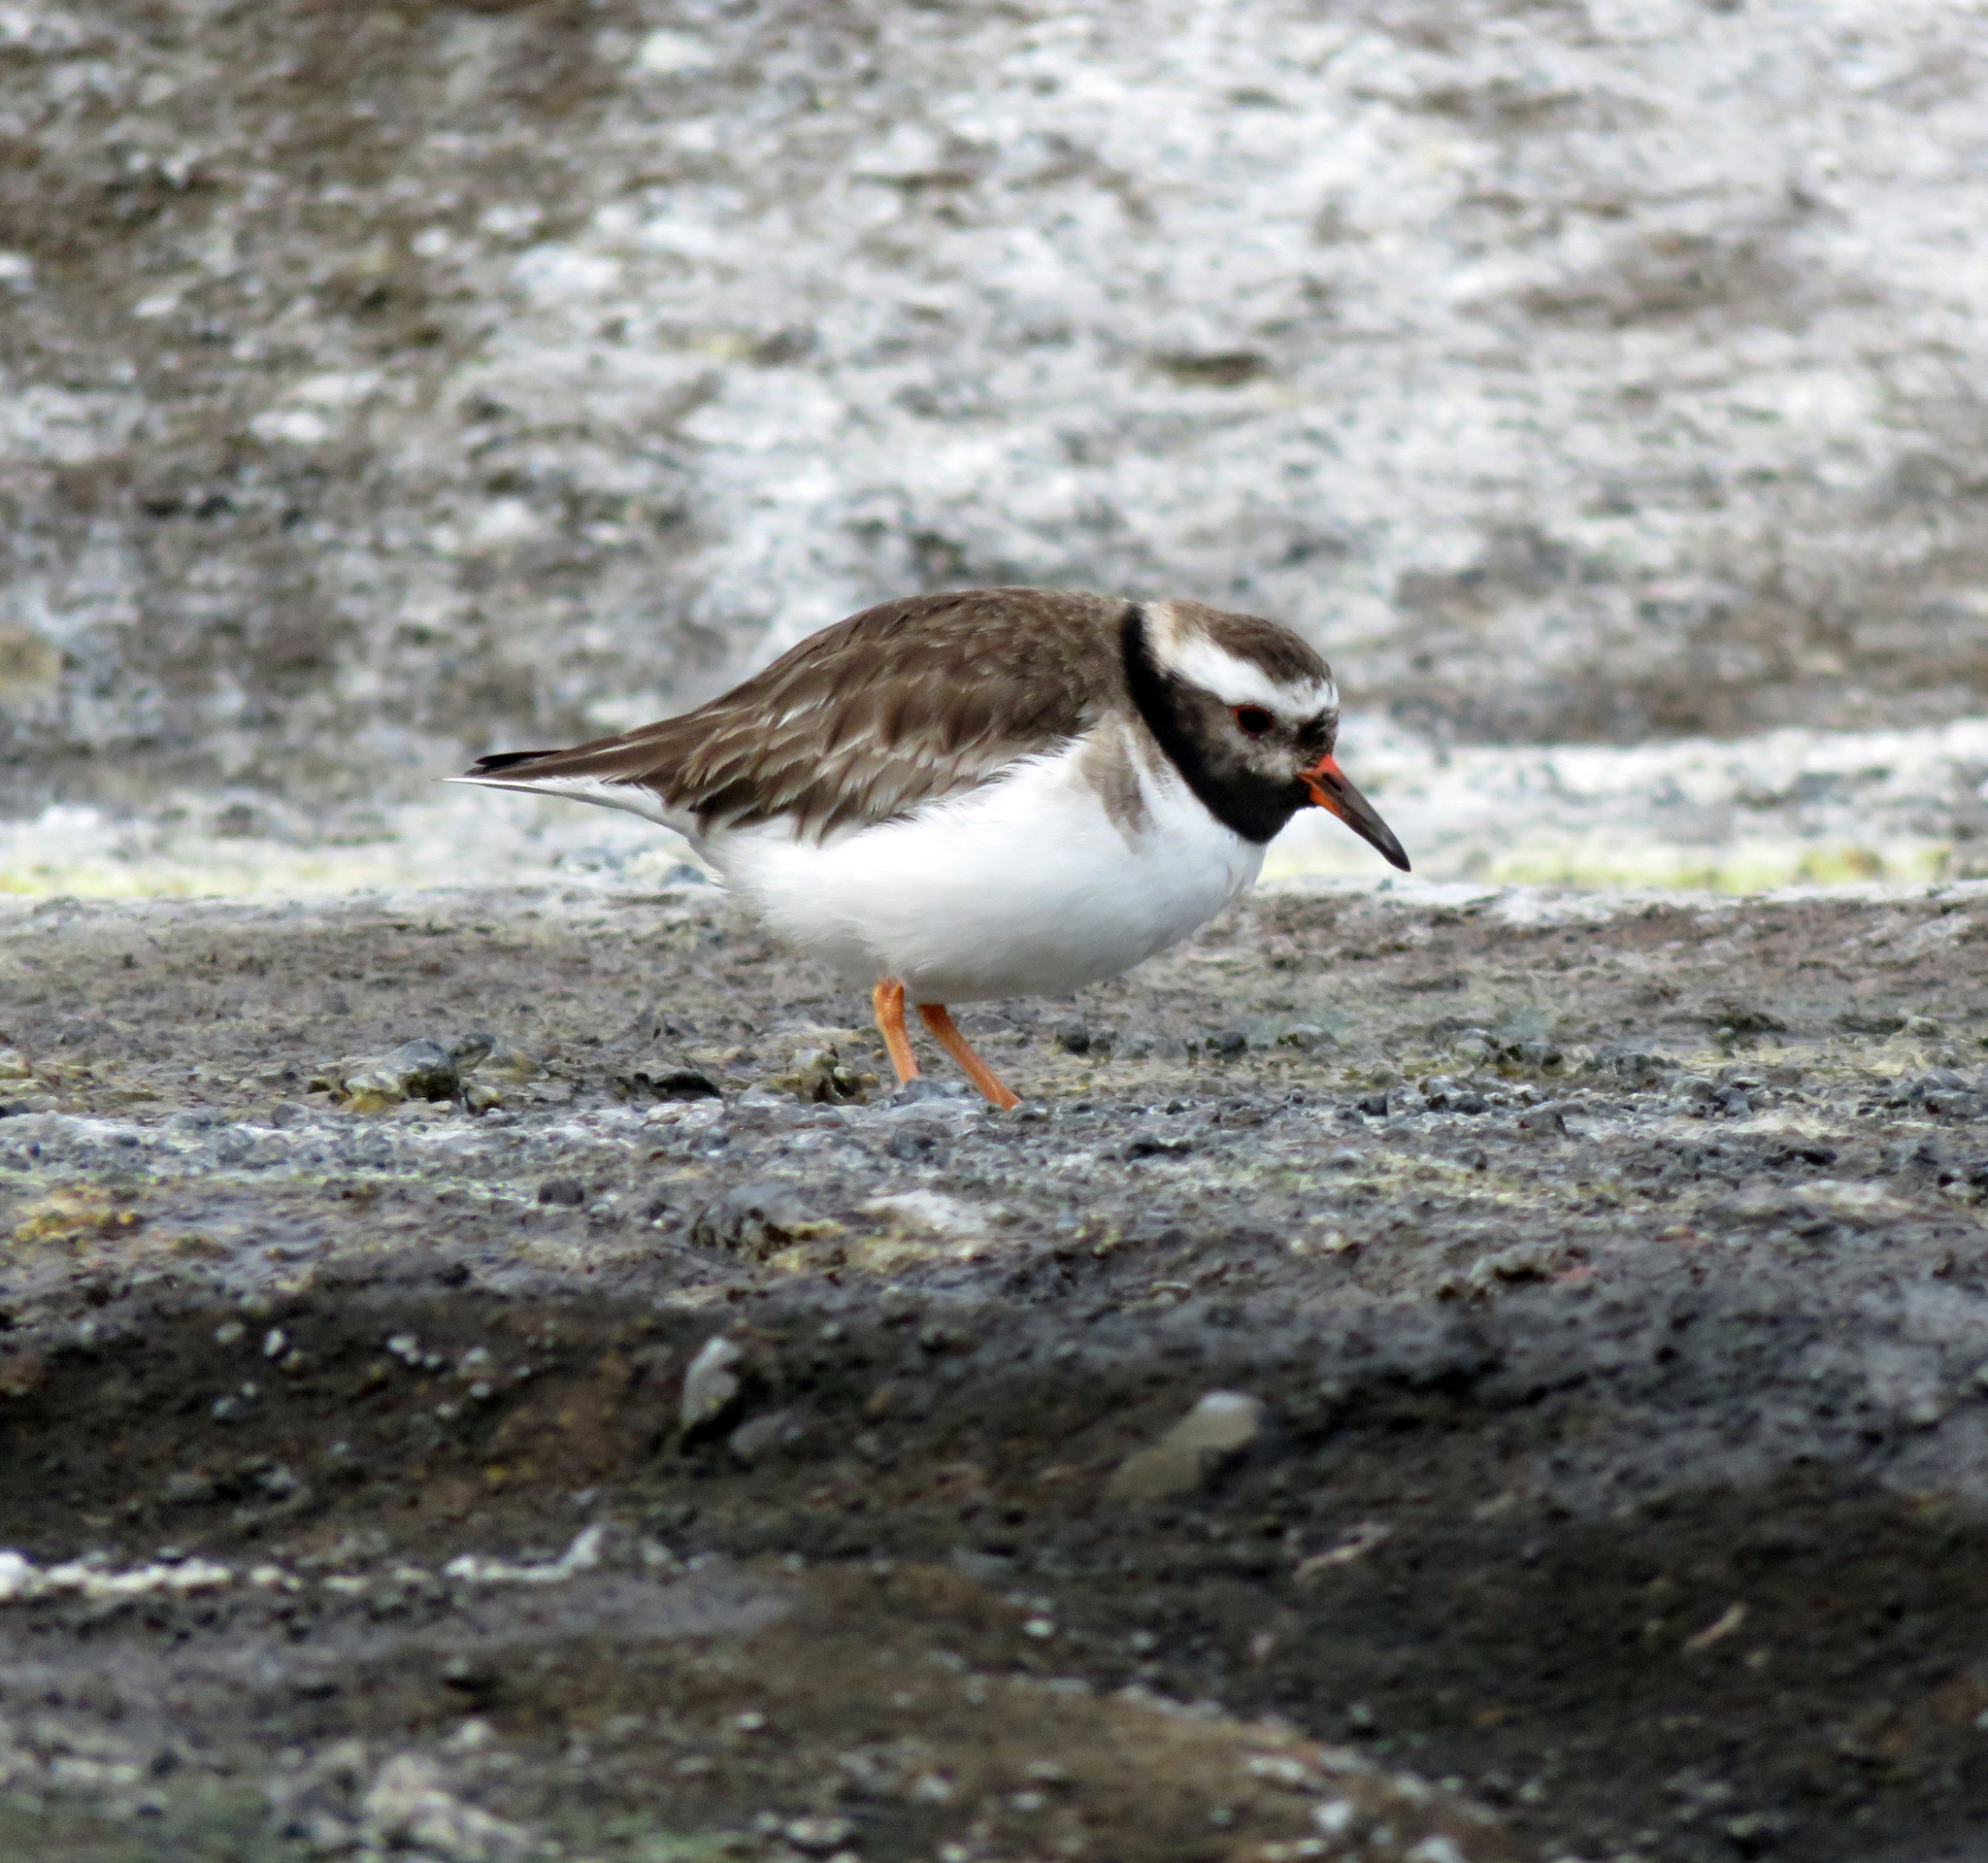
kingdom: Animalia
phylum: Chordata
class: Aves
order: Charadriiformes
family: Charadriidae
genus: Thinornis
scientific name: Thinornis novaeseelandiae
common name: Shore dotterel
